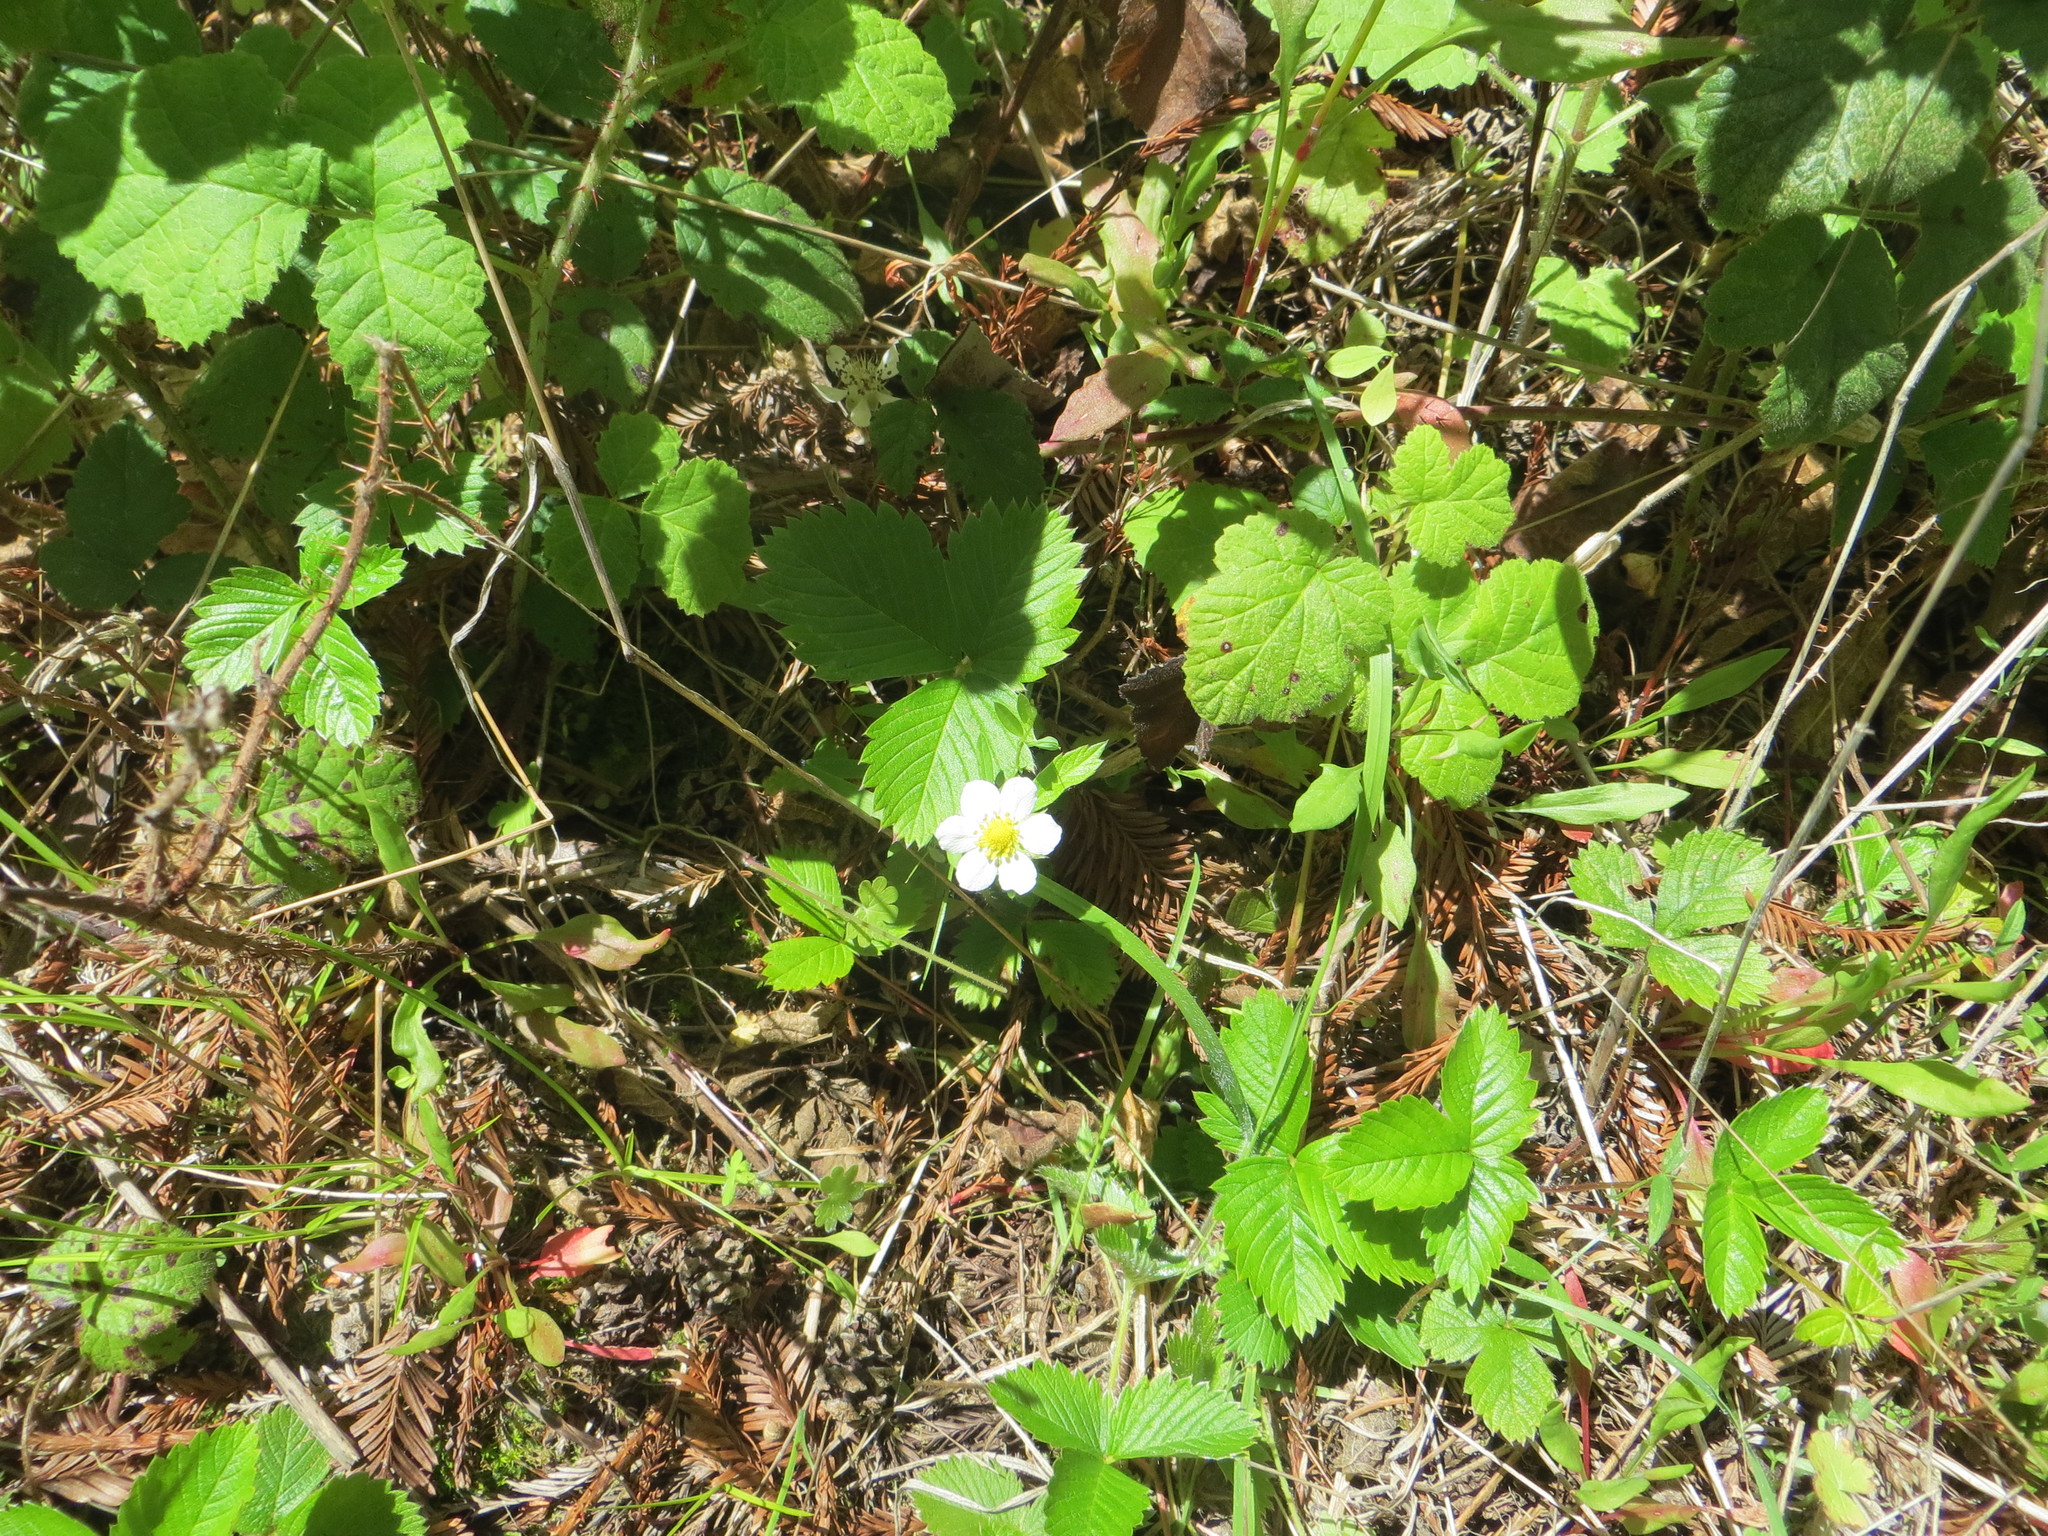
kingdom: Plantae
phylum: Tracheophyta
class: Magnoliopsida
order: Rosales
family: Rosaceae
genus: Fragaria
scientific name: Fragaria vesca
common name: Wild strawberry
